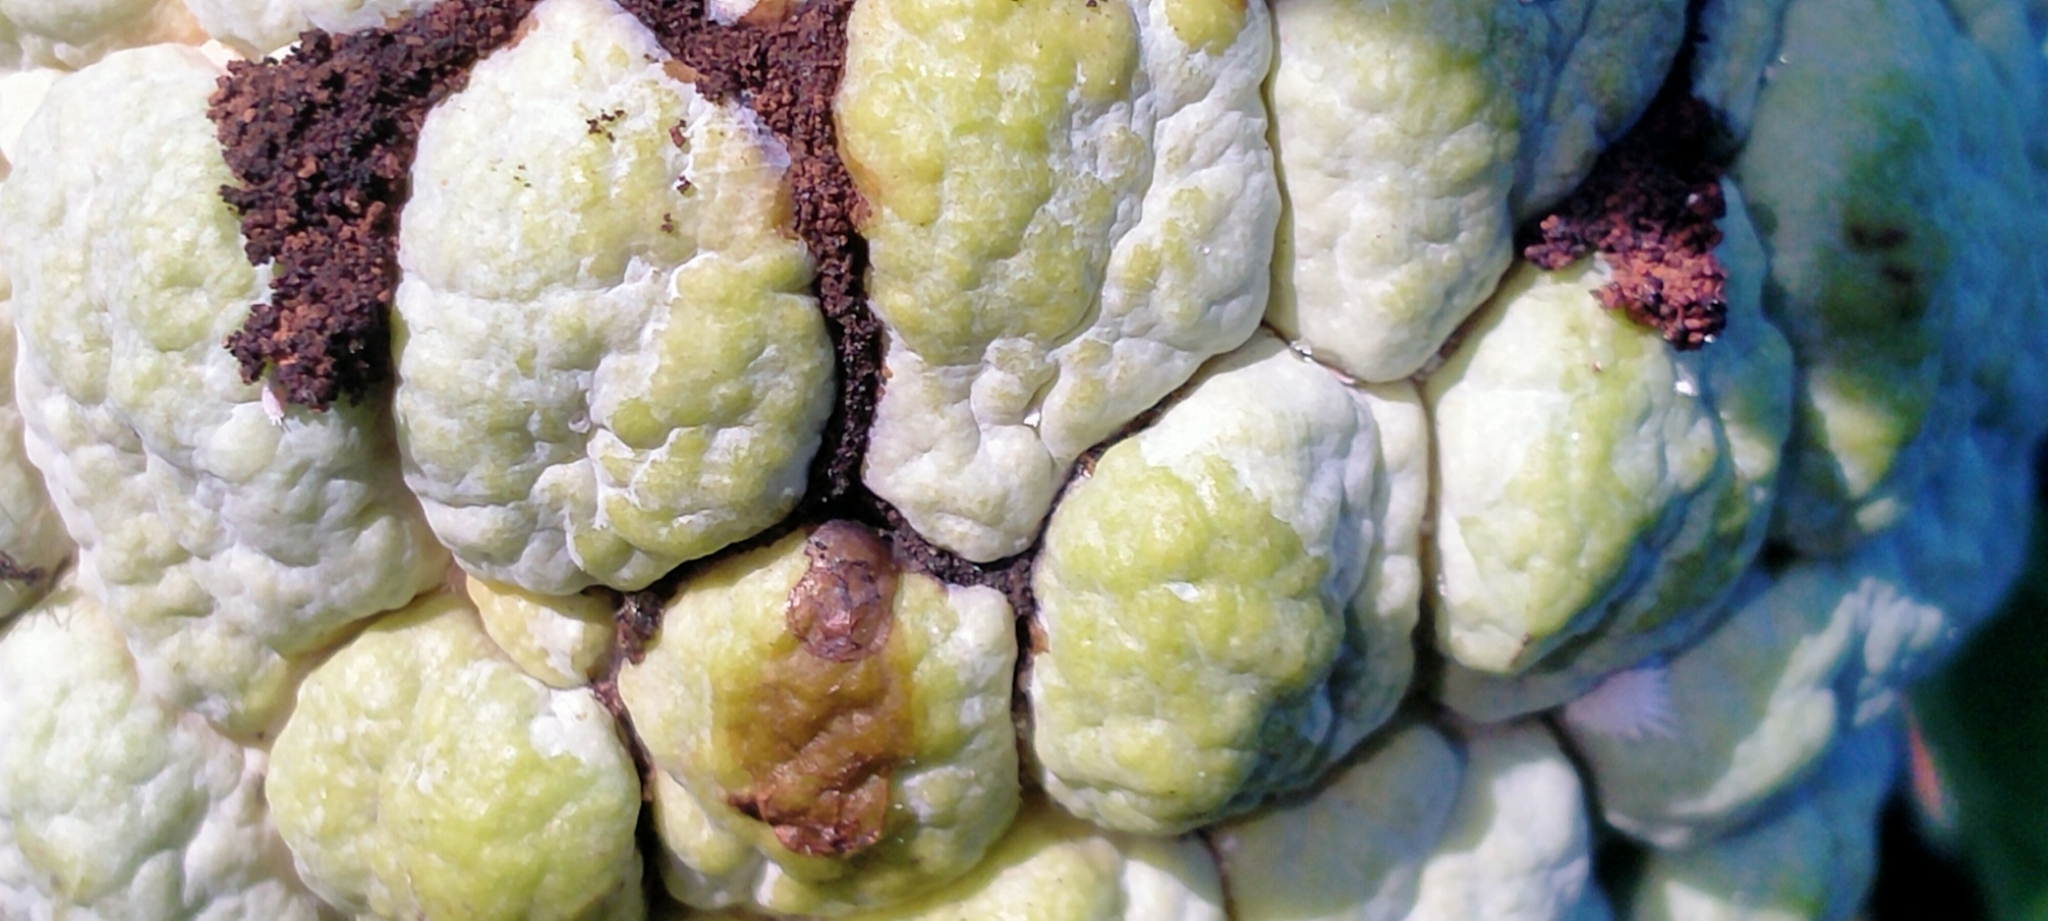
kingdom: Animalia
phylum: Arthropoda
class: Insecta
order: Hymenoptera
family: Formicidae
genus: Paratrechina
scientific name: Paratrechina longicornis
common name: Longhorned crazy ant
